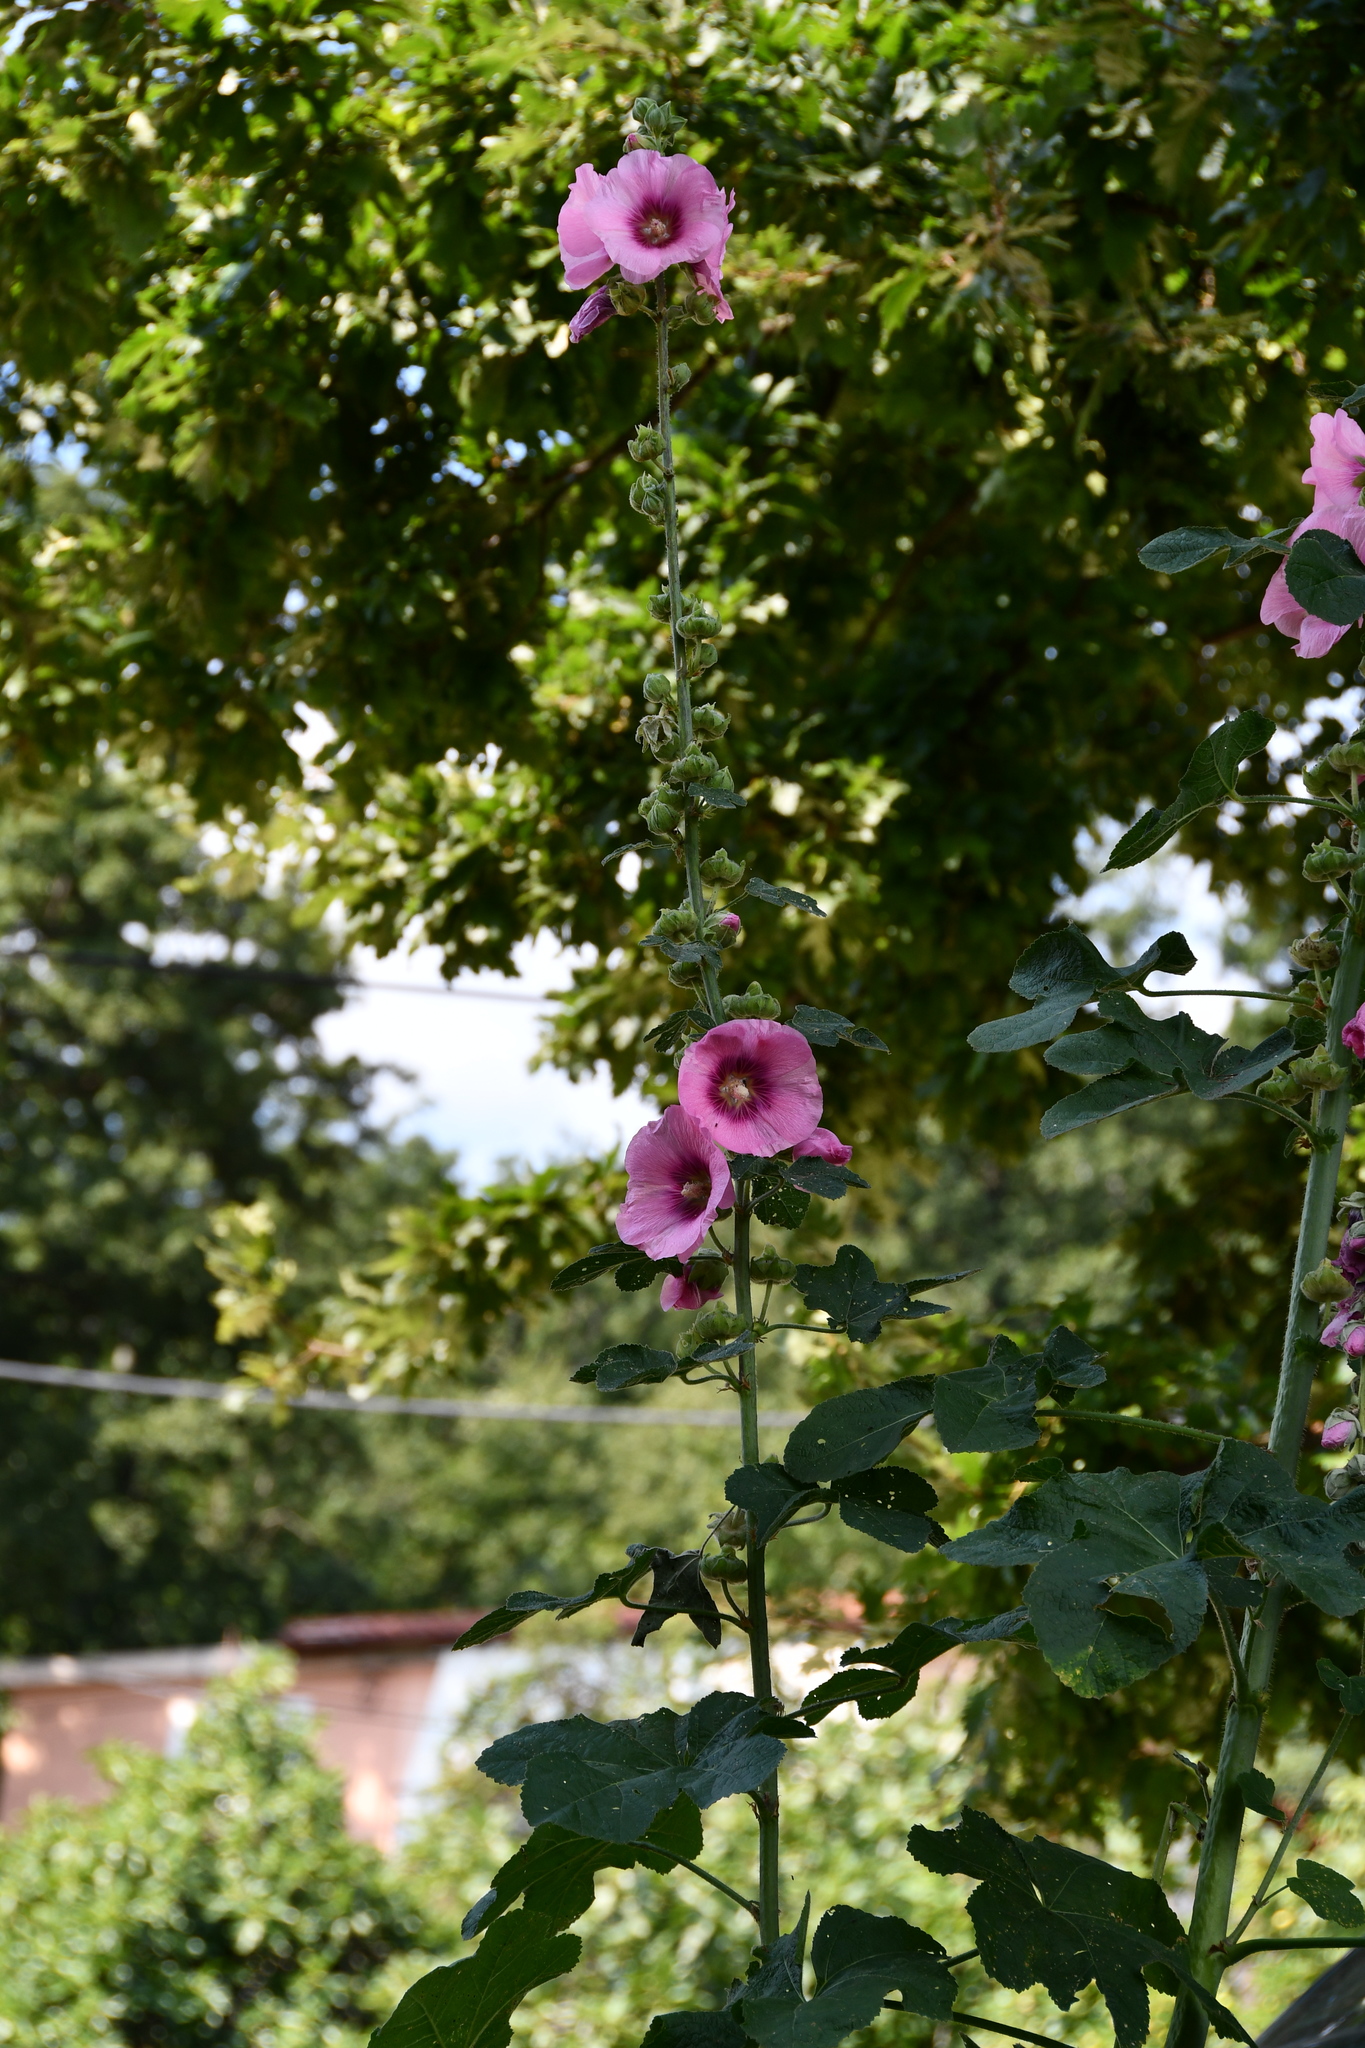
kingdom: Plantae
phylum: Tracheophyta
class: Magnoliopsida
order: Malvales
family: Malvaceae
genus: Alcea
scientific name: Alcea rosea
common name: Hollyhock
